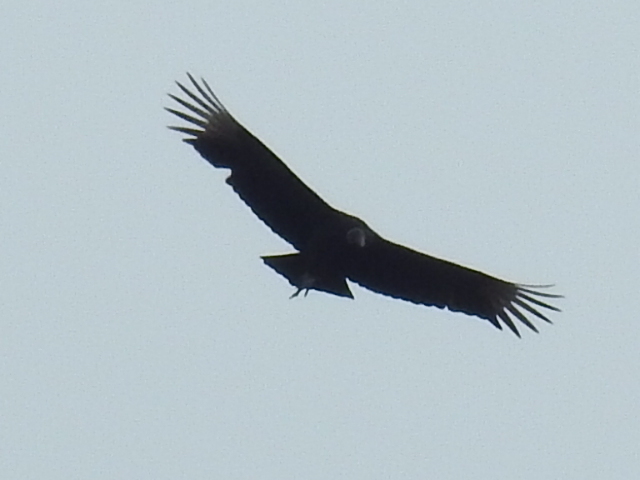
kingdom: Animalia
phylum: Chordata
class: Aves
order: Accipitriformes
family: Cathartidae
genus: Coragyps
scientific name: Coragyps atratus
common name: Black vulture
